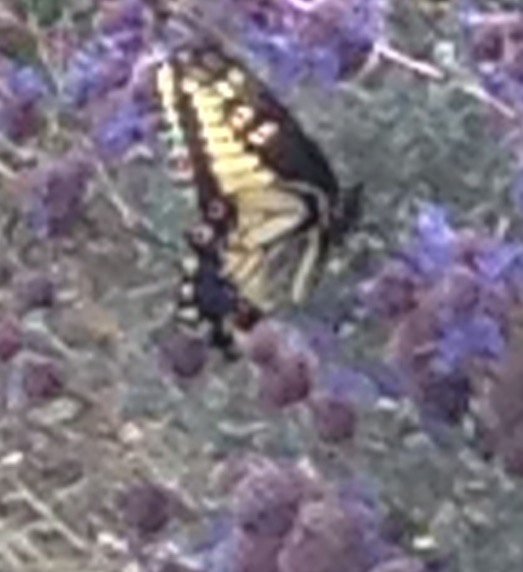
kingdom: Animalia
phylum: Arthropoda
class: Insecta
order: Lepidoptera
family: Papilionidae
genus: Papilio
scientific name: Papilio polyxenes
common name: Black swallowtail
